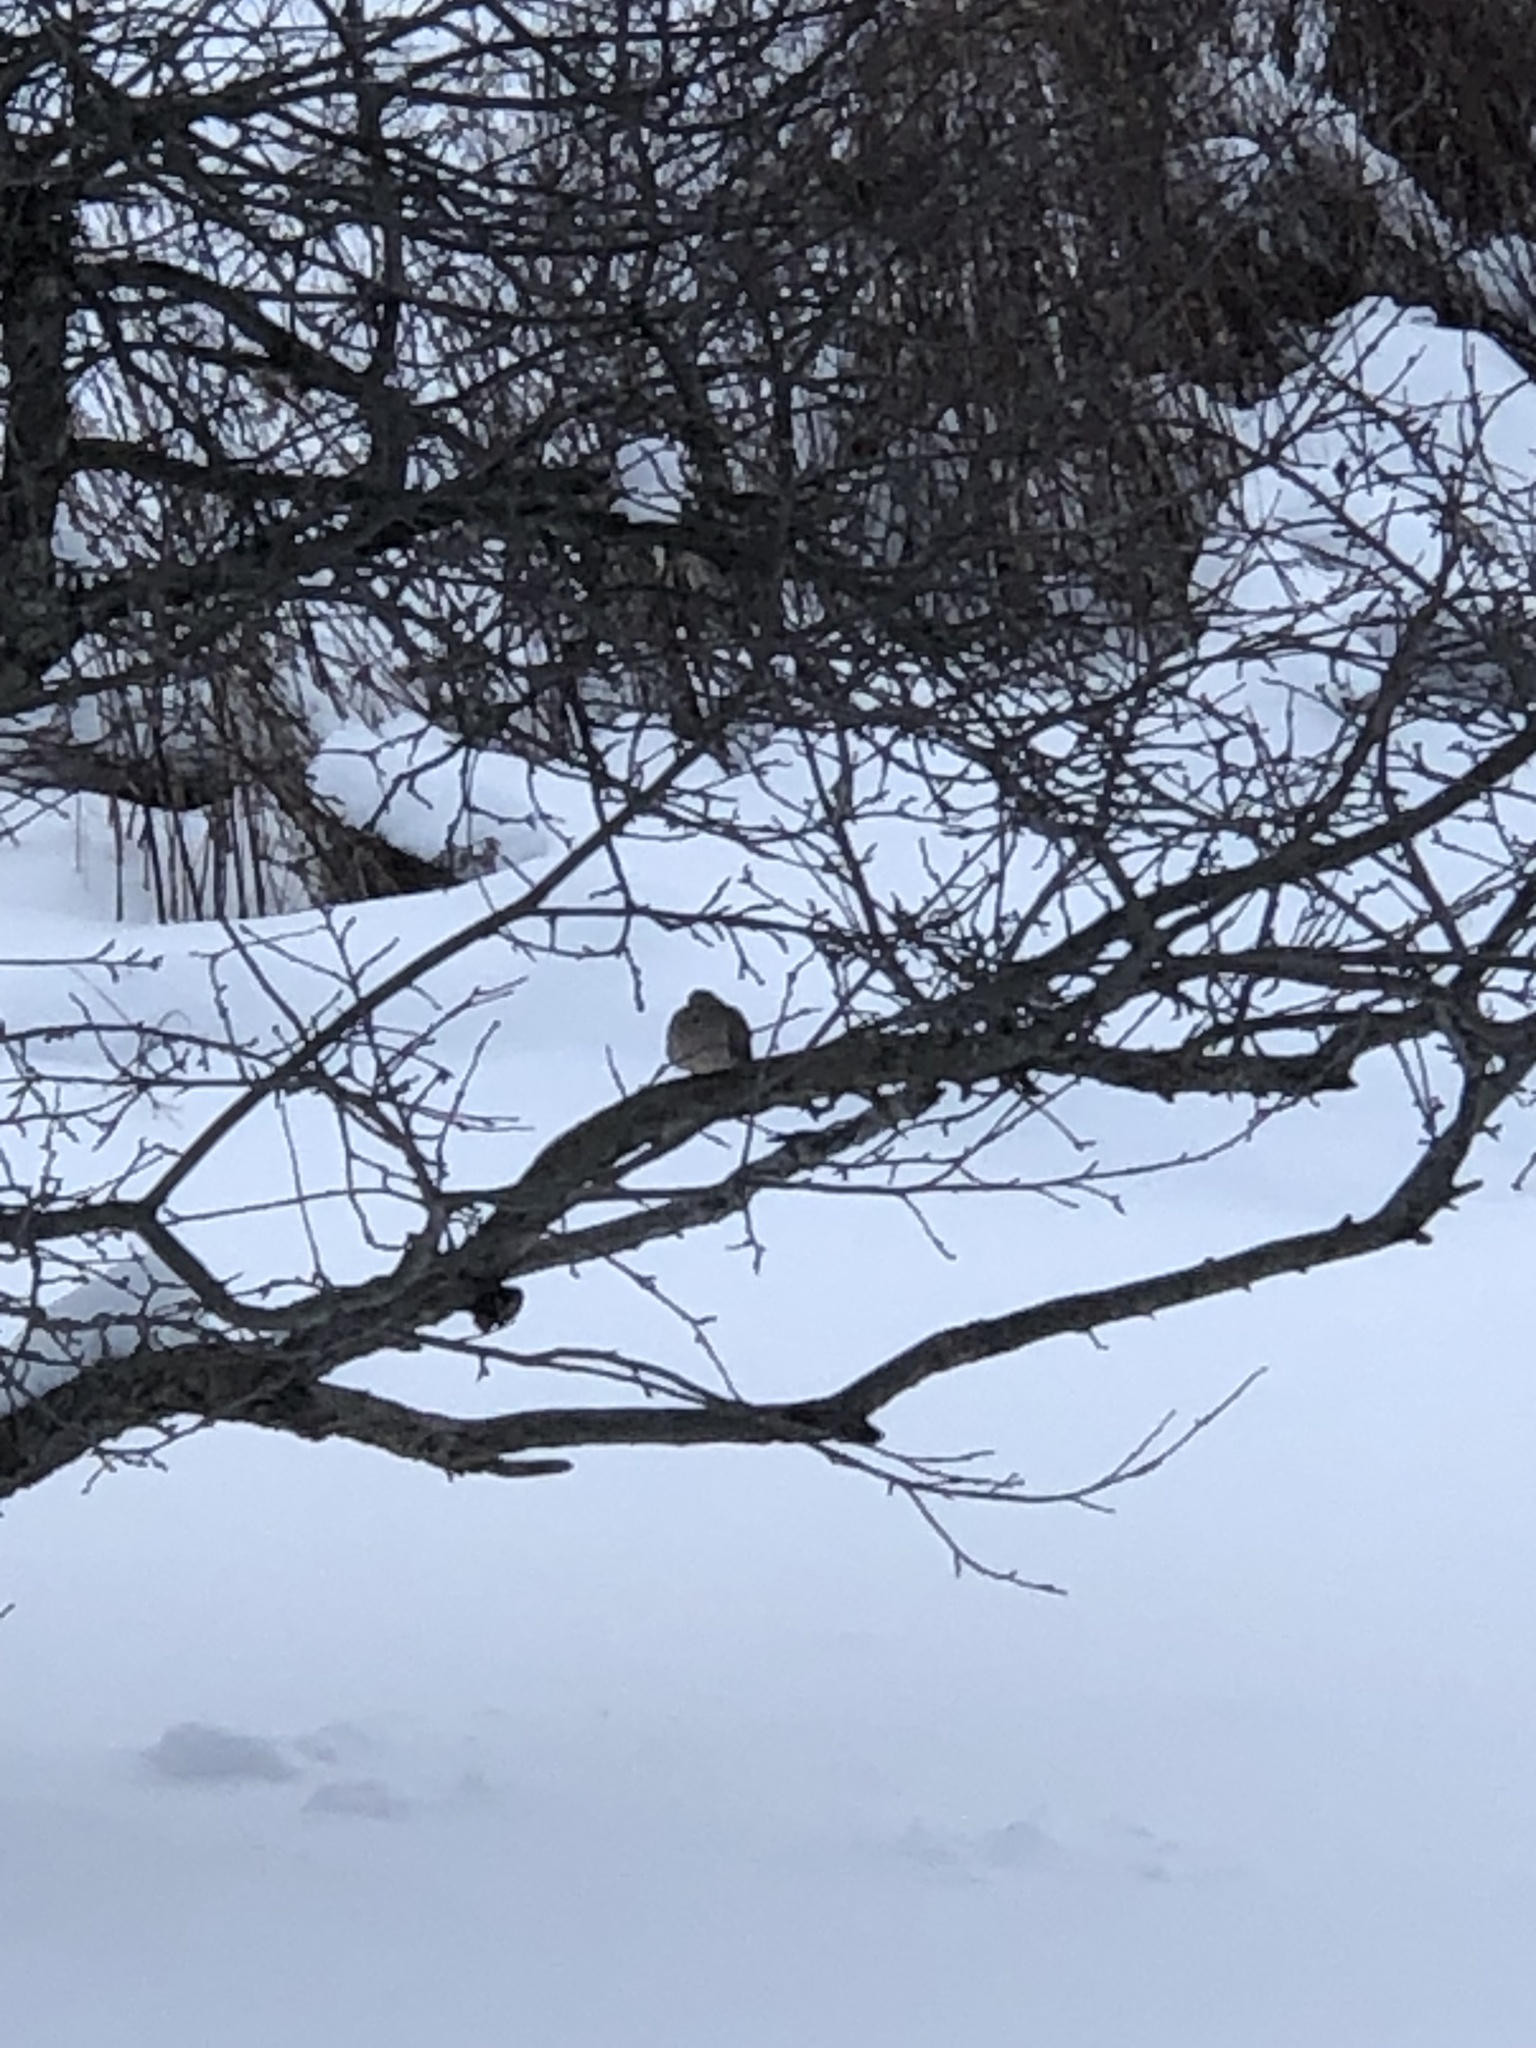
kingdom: Animalia
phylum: Chordata
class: Aves
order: Columbiformes
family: Columbidae
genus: Zenaida
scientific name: Zenaida macroura
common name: Mourning dove
